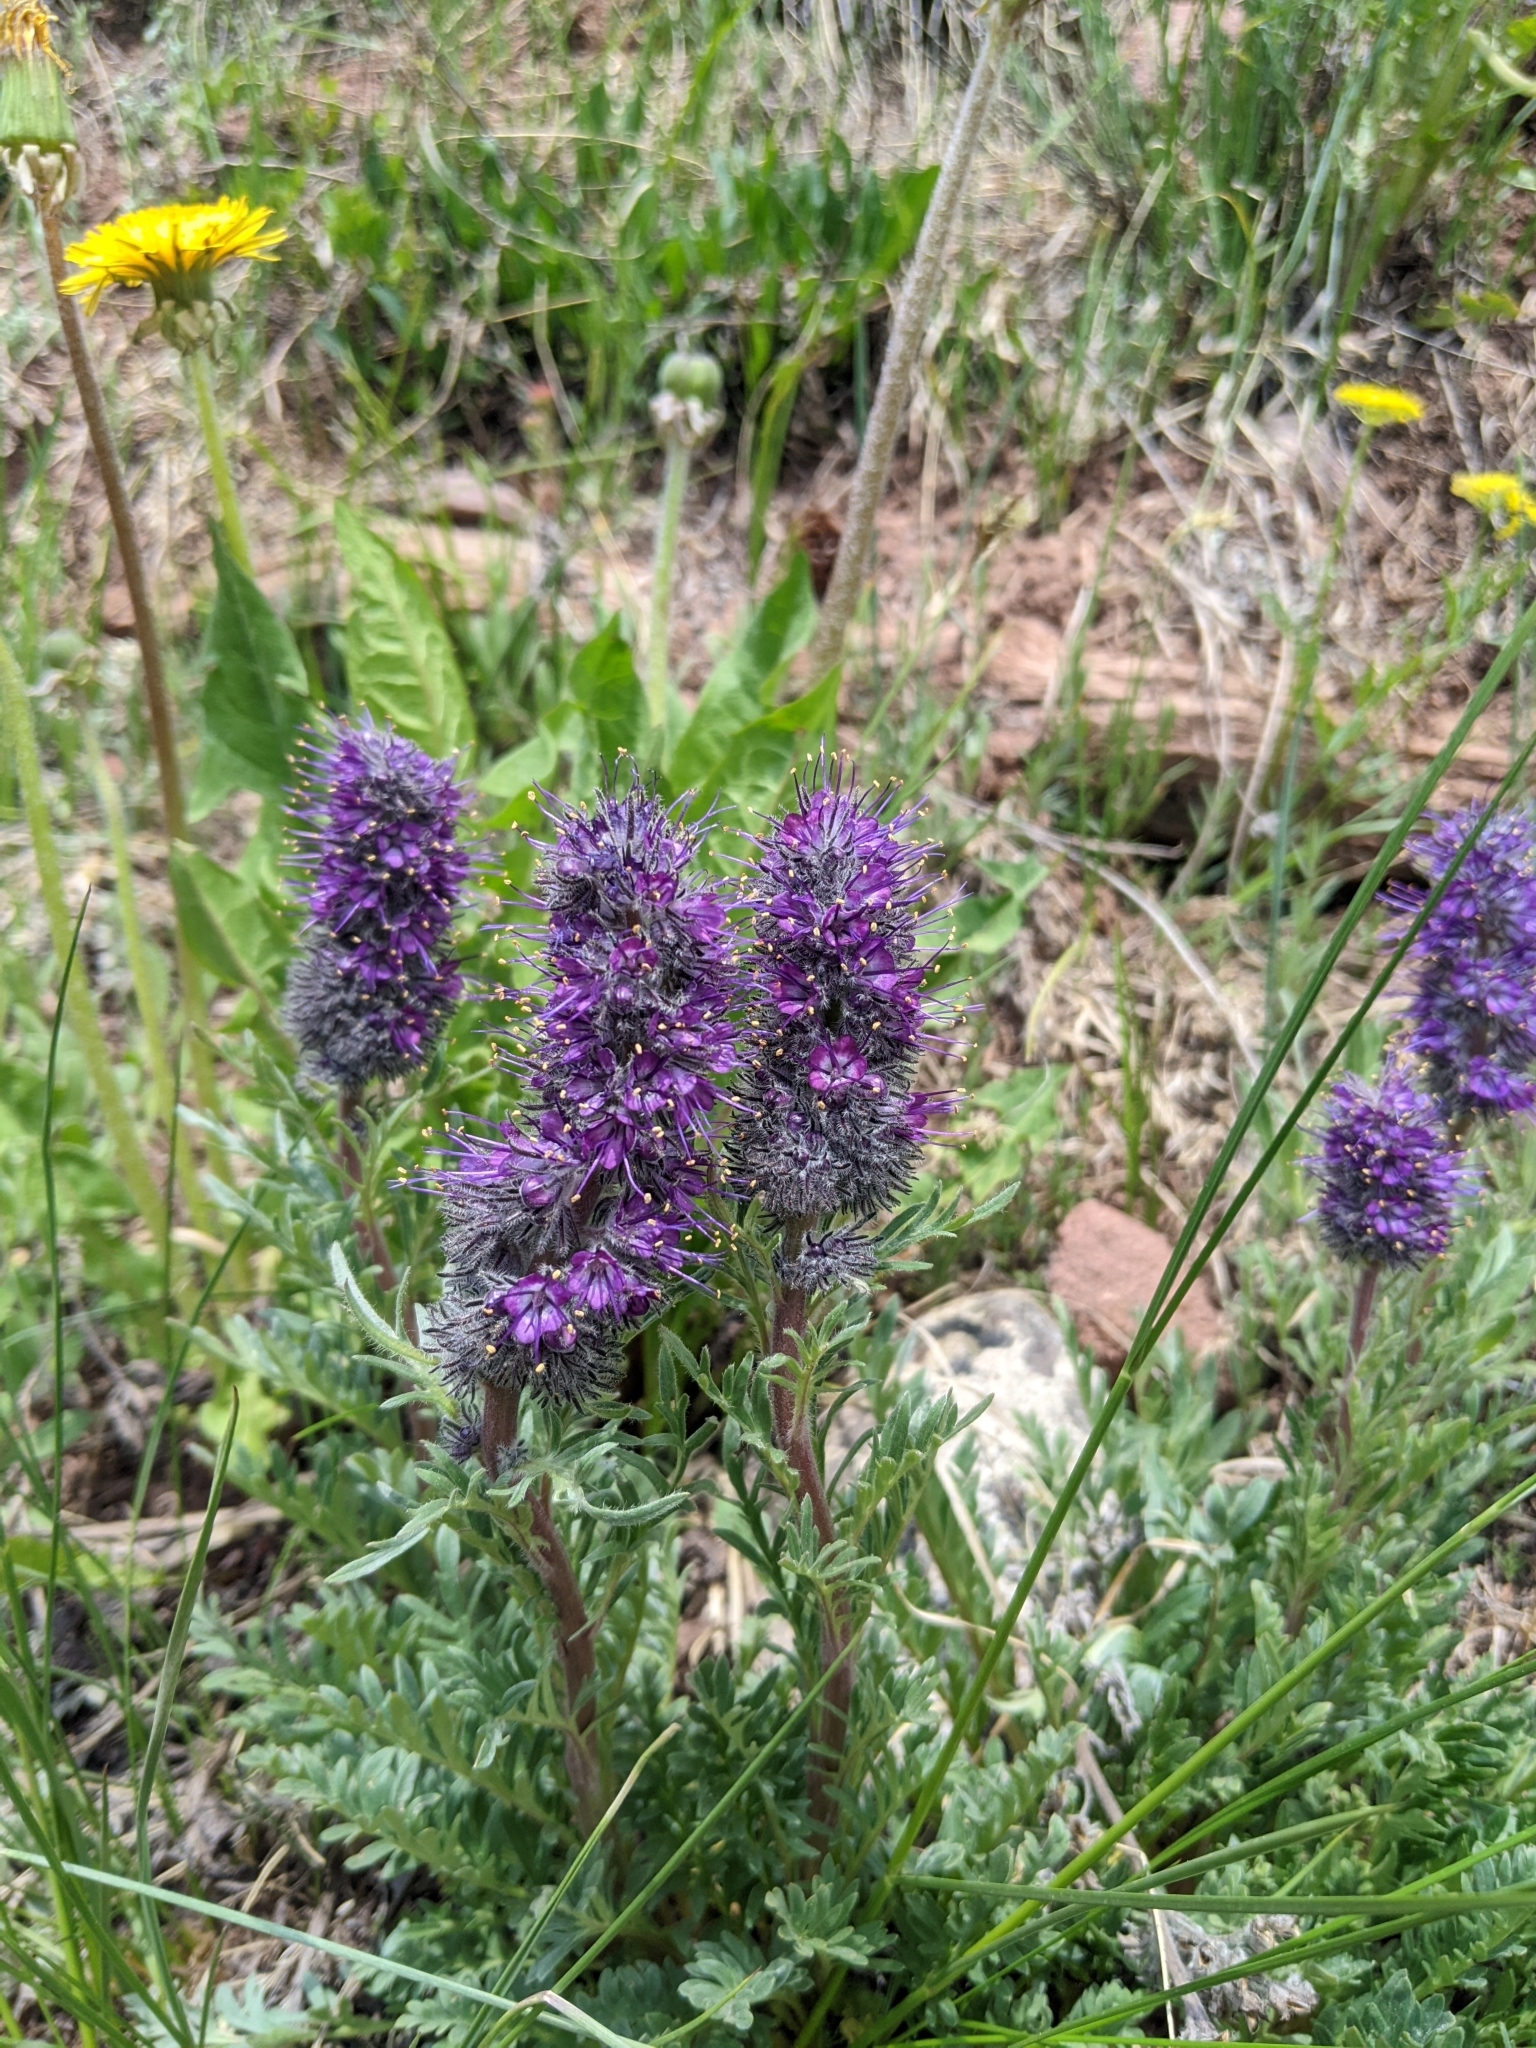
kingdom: Plantae
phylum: Tracheophyta
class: Magnoliopsida
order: Boraginales
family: Hydrophyllaceae
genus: Phacelia
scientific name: Phacelia sericea
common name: Silky phacelia
